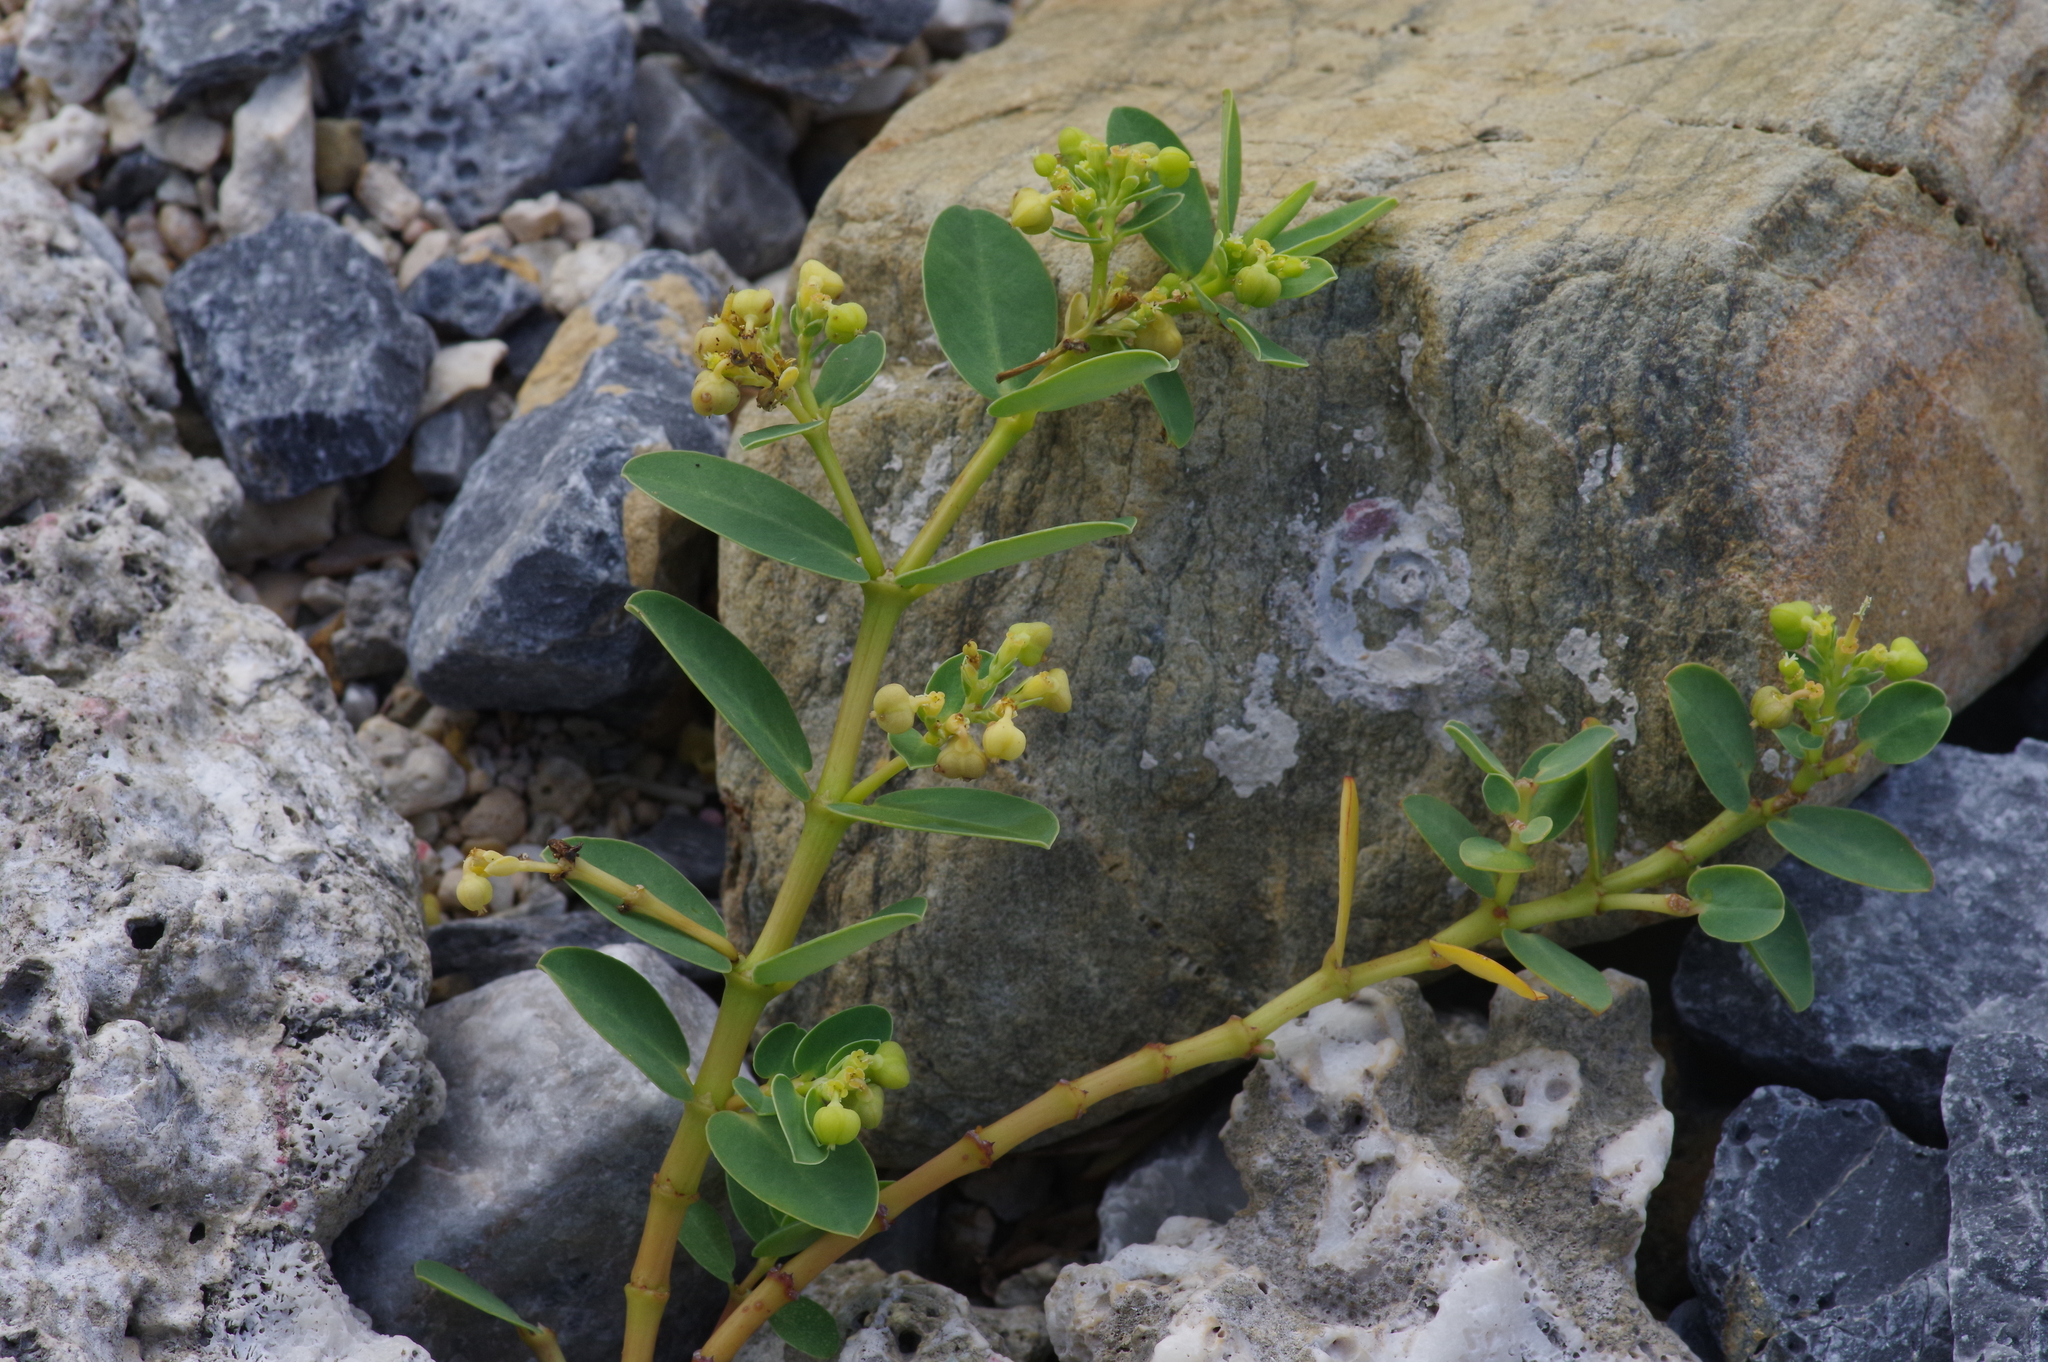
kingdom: Plantae
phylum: Tracheophyta
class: Magnoliopsida
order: Malpighiales
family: Euphorbiaceae
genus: Euphorbia
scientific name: Euphorbia atoto
